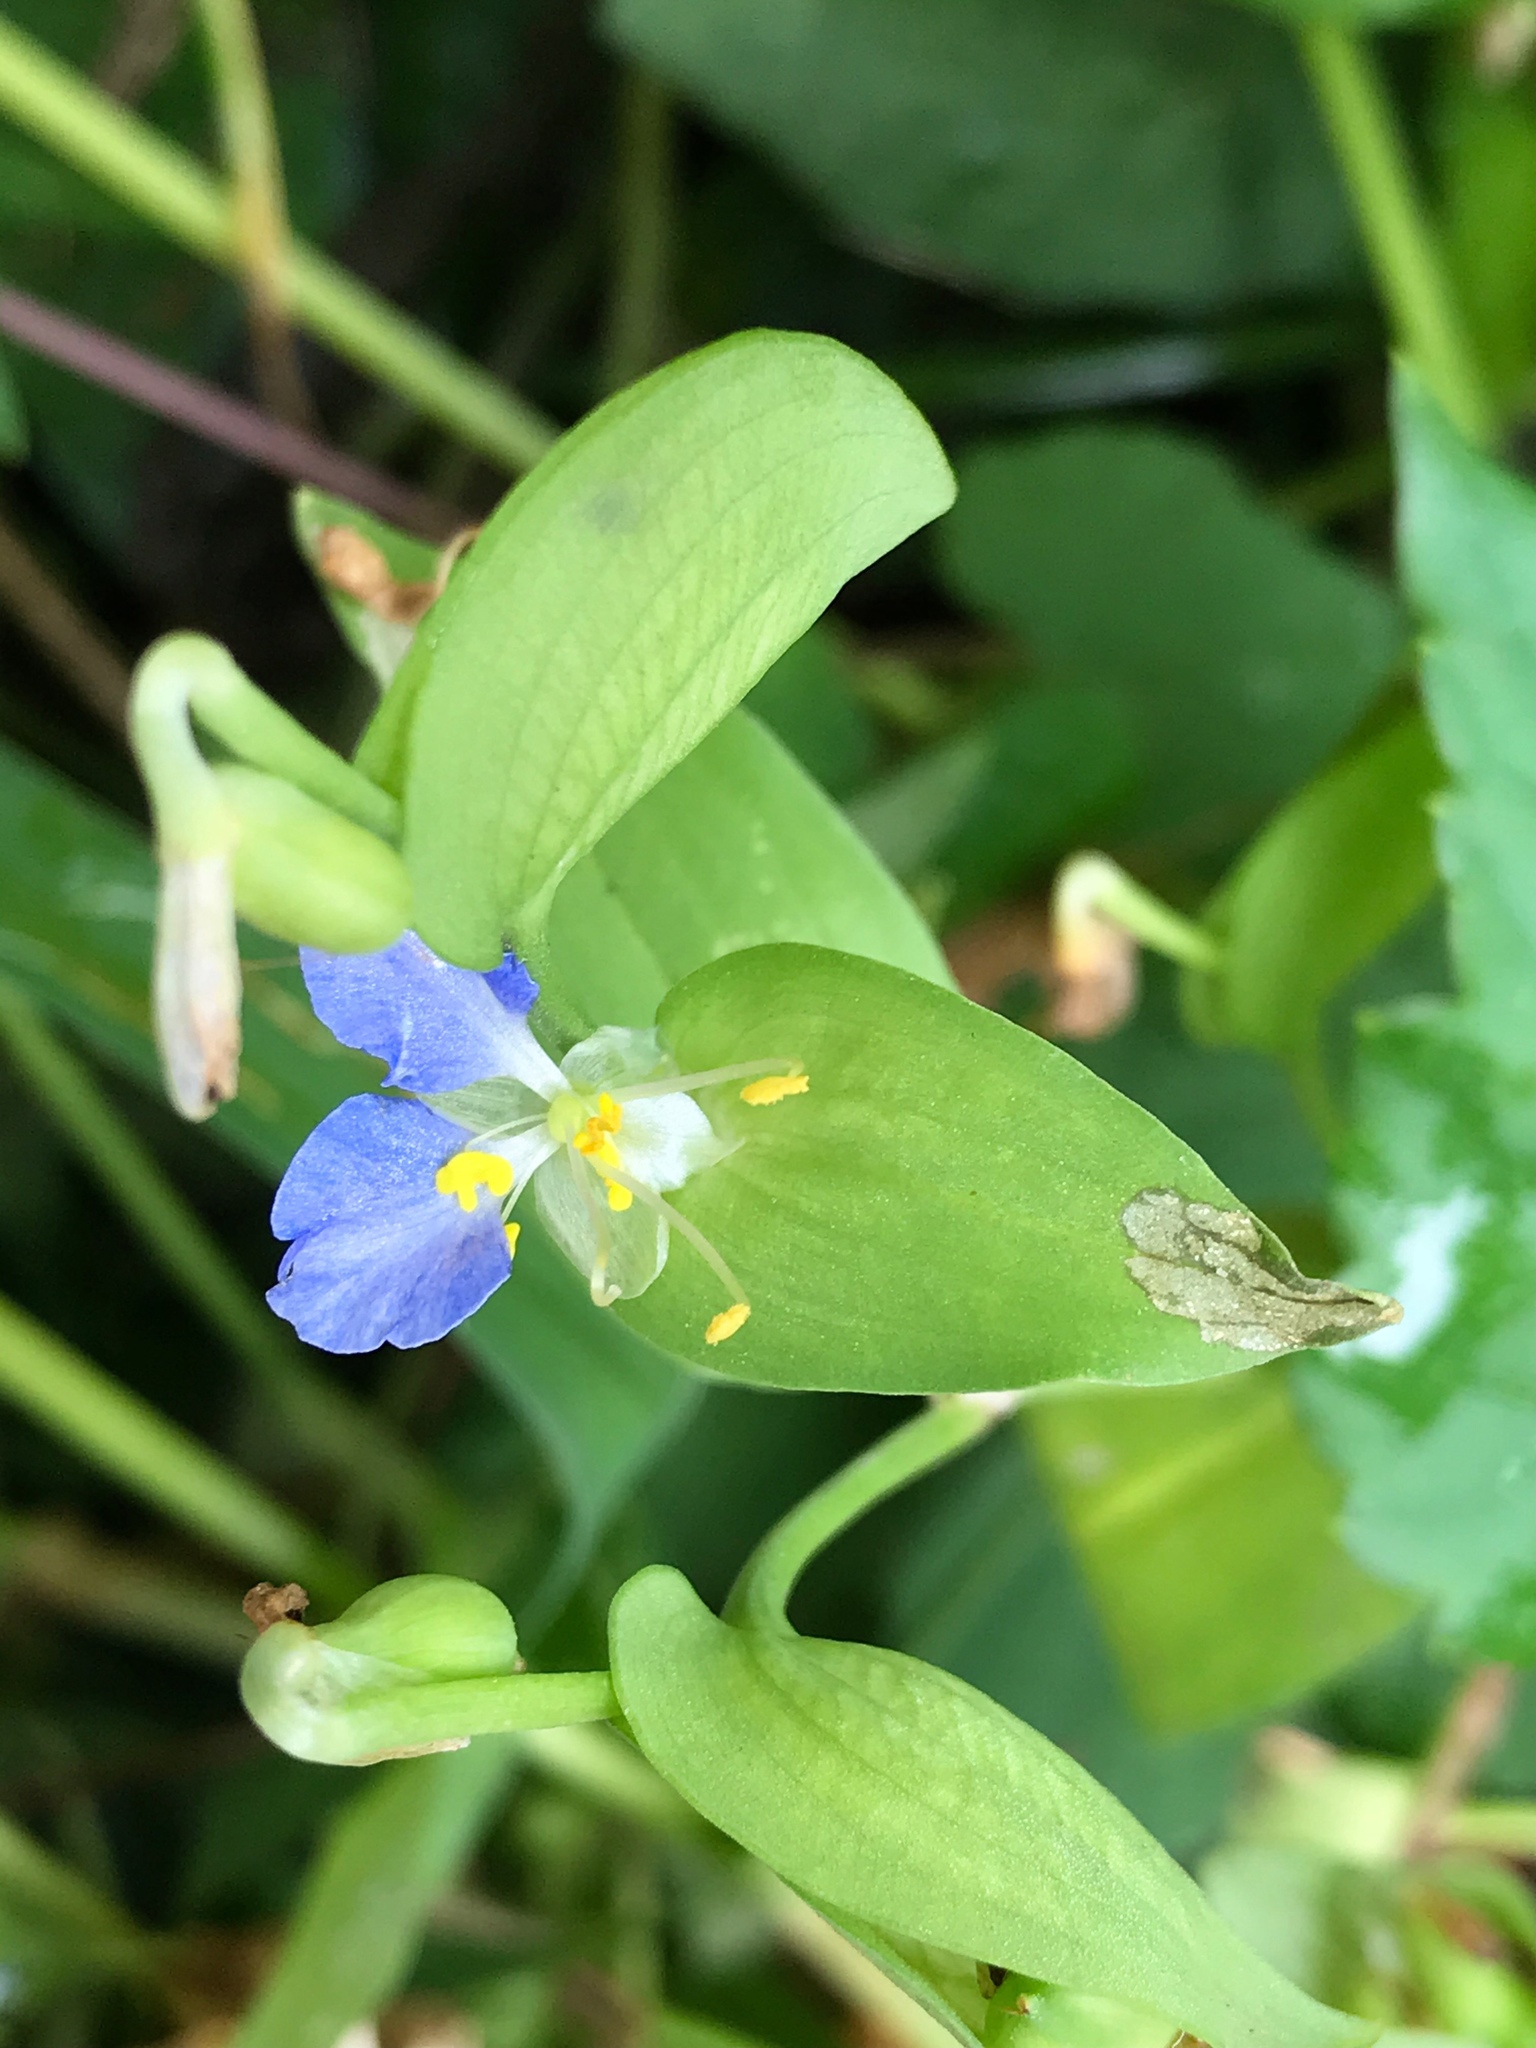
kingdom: Plantae
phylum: Tracheophyta
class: Liliopsida
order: Commelinales
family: Commelinaceae
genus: Commelina
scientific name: Commelina communis
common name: Asiatic dayflower
